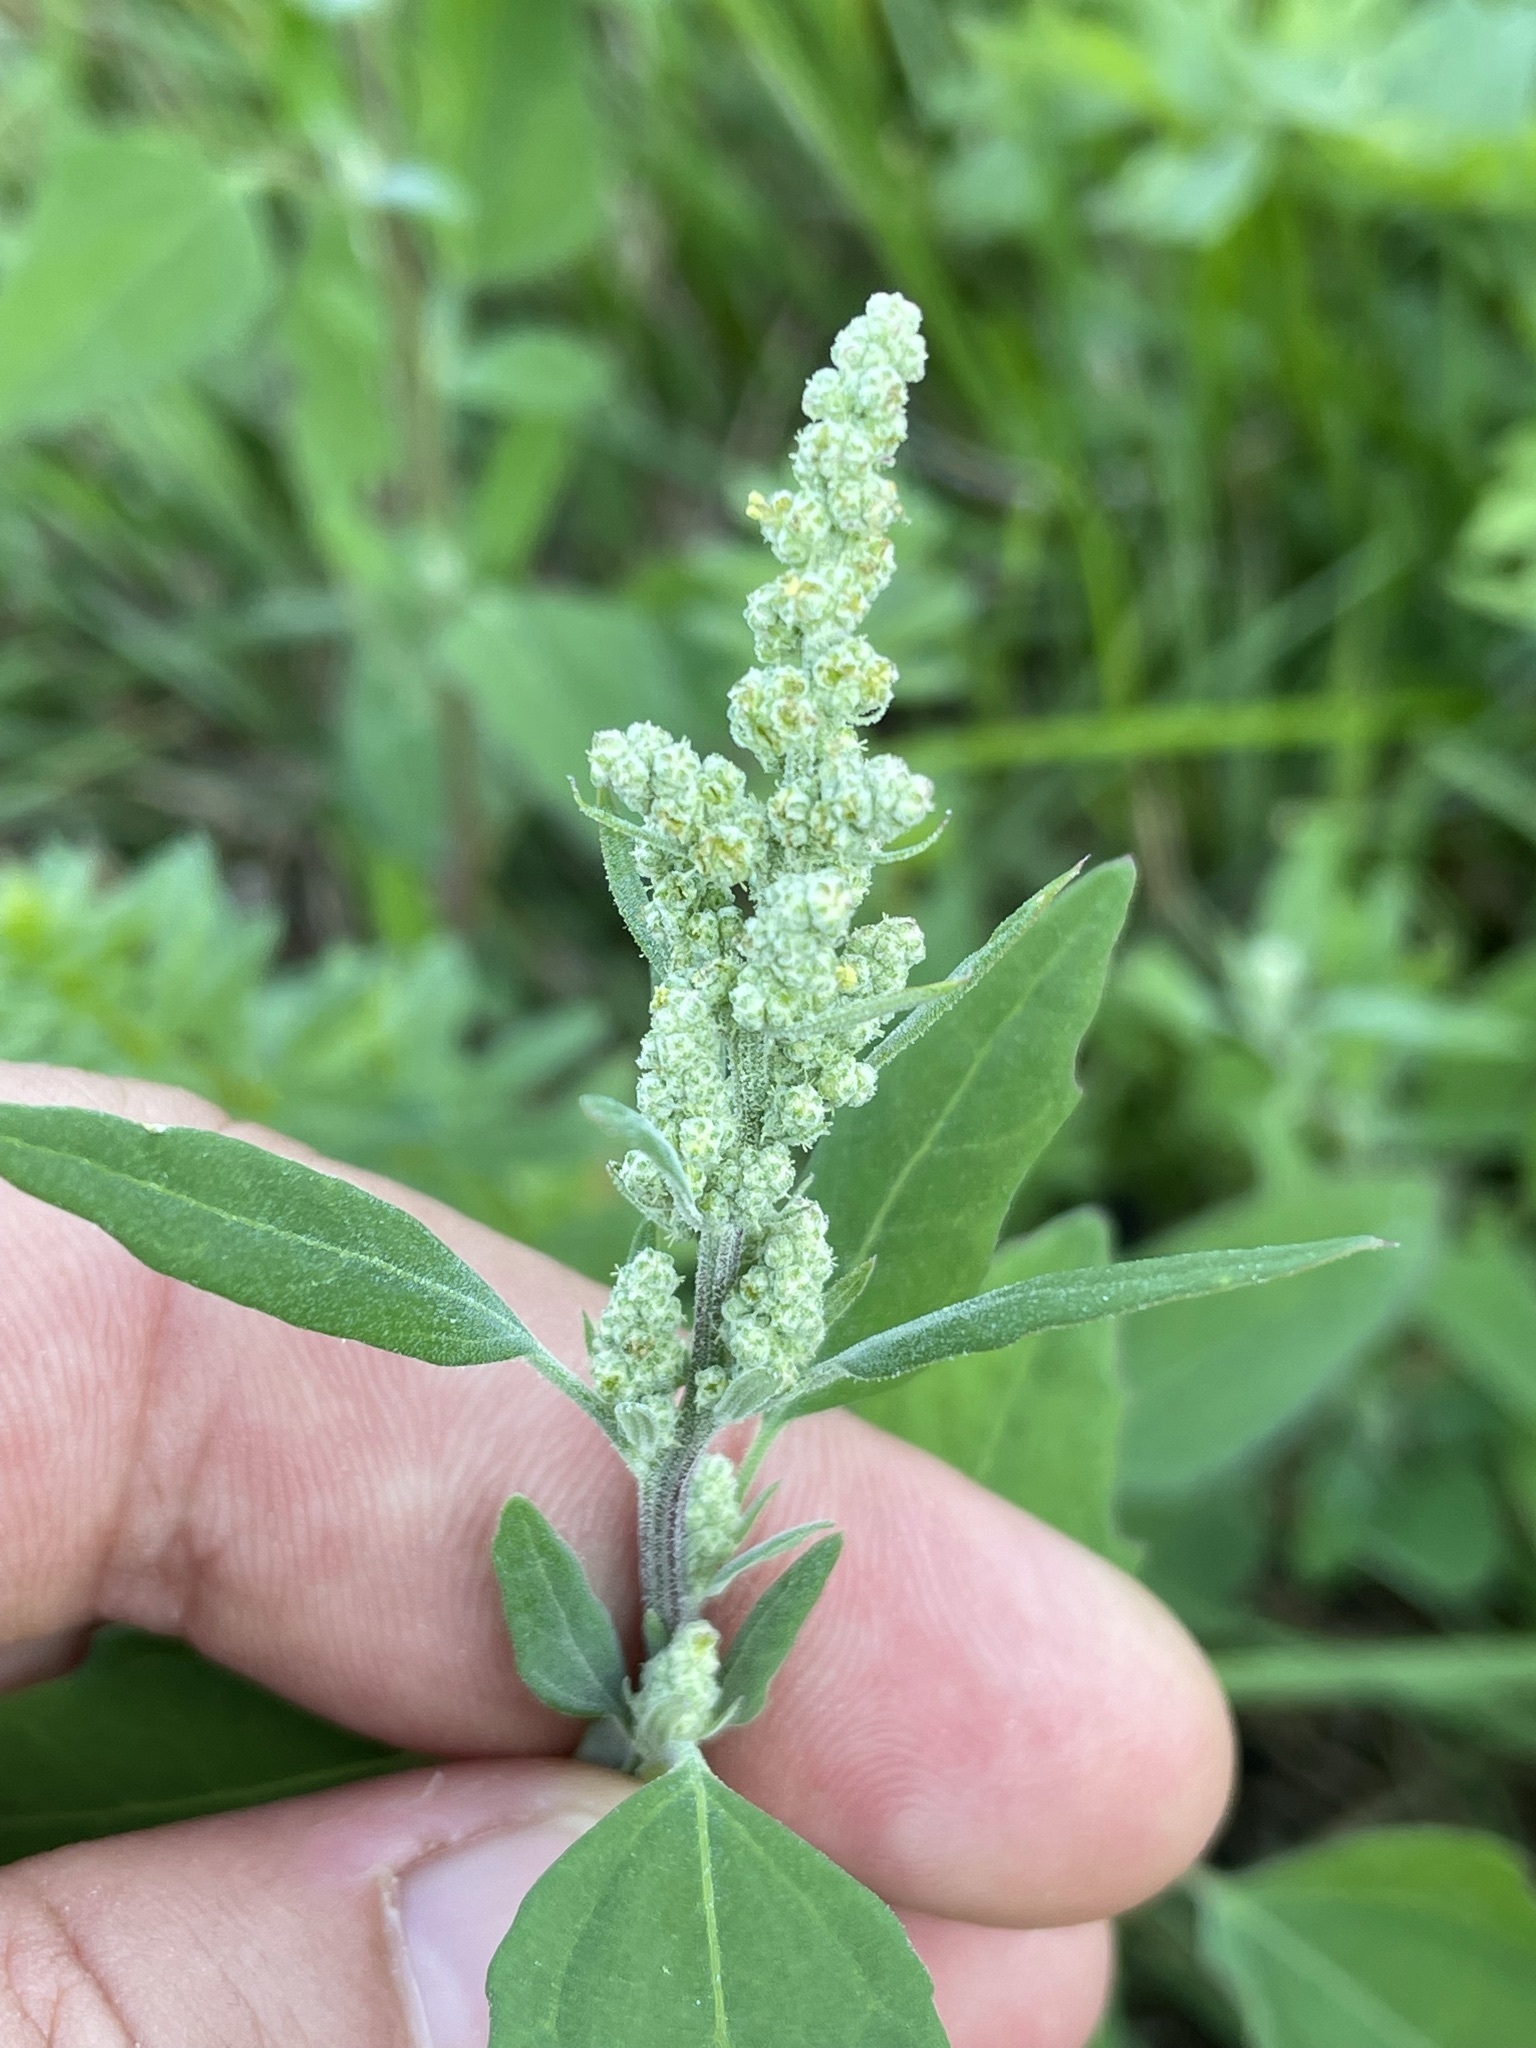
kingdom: Plantae
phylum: Tracheophyta
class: Magnoliopsida
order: Caryophyllales
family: Amaranthaceae
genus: Chenopodium
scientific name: Chenopodium album
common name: Fat-hen
